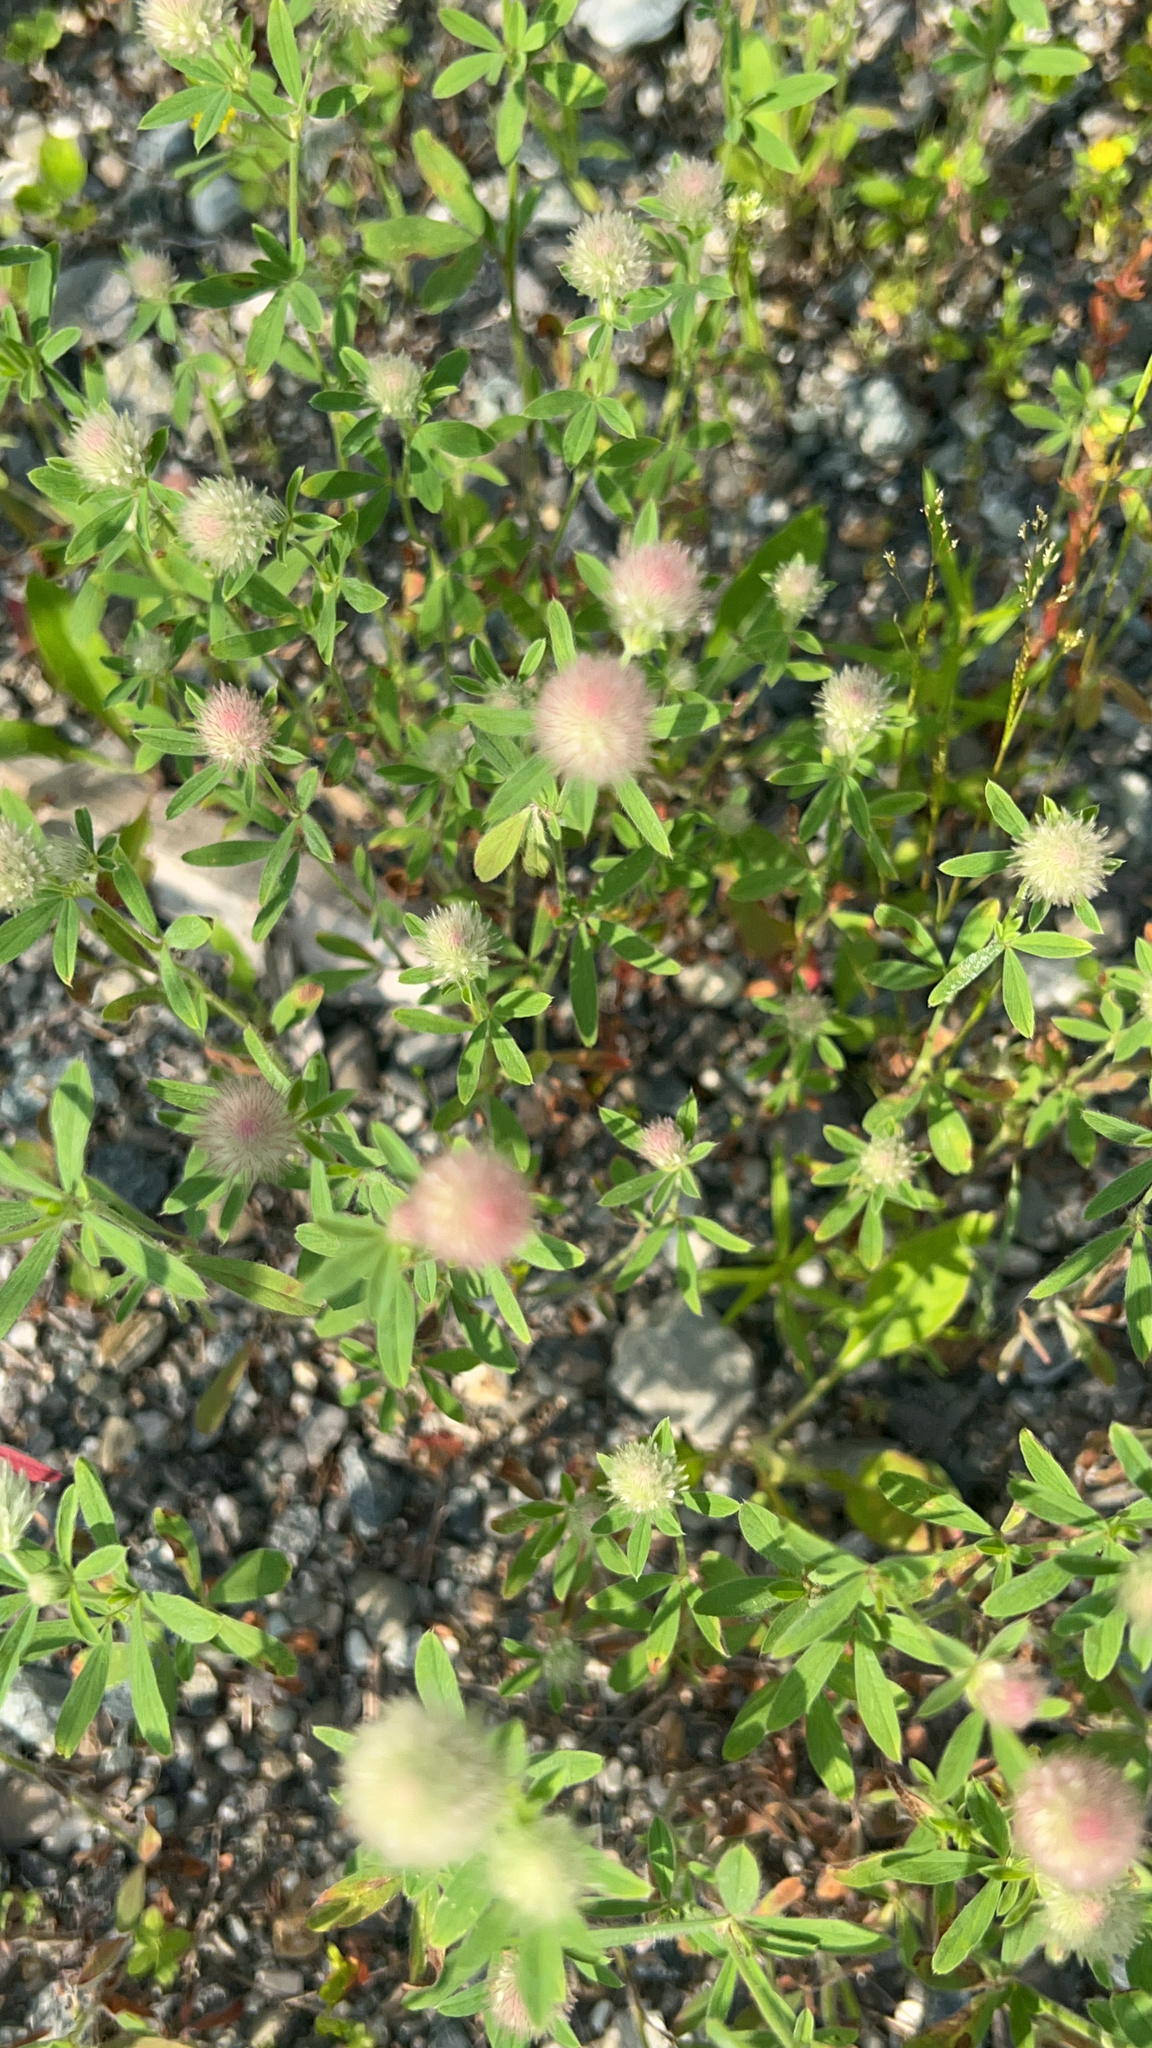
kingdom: Plantae
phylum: Tracheophyta
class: Magnoliopsida
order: Fabales
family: Fabaceae
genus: Trifolium
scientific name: Trifolium arvense
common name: Hare's-foot clover
